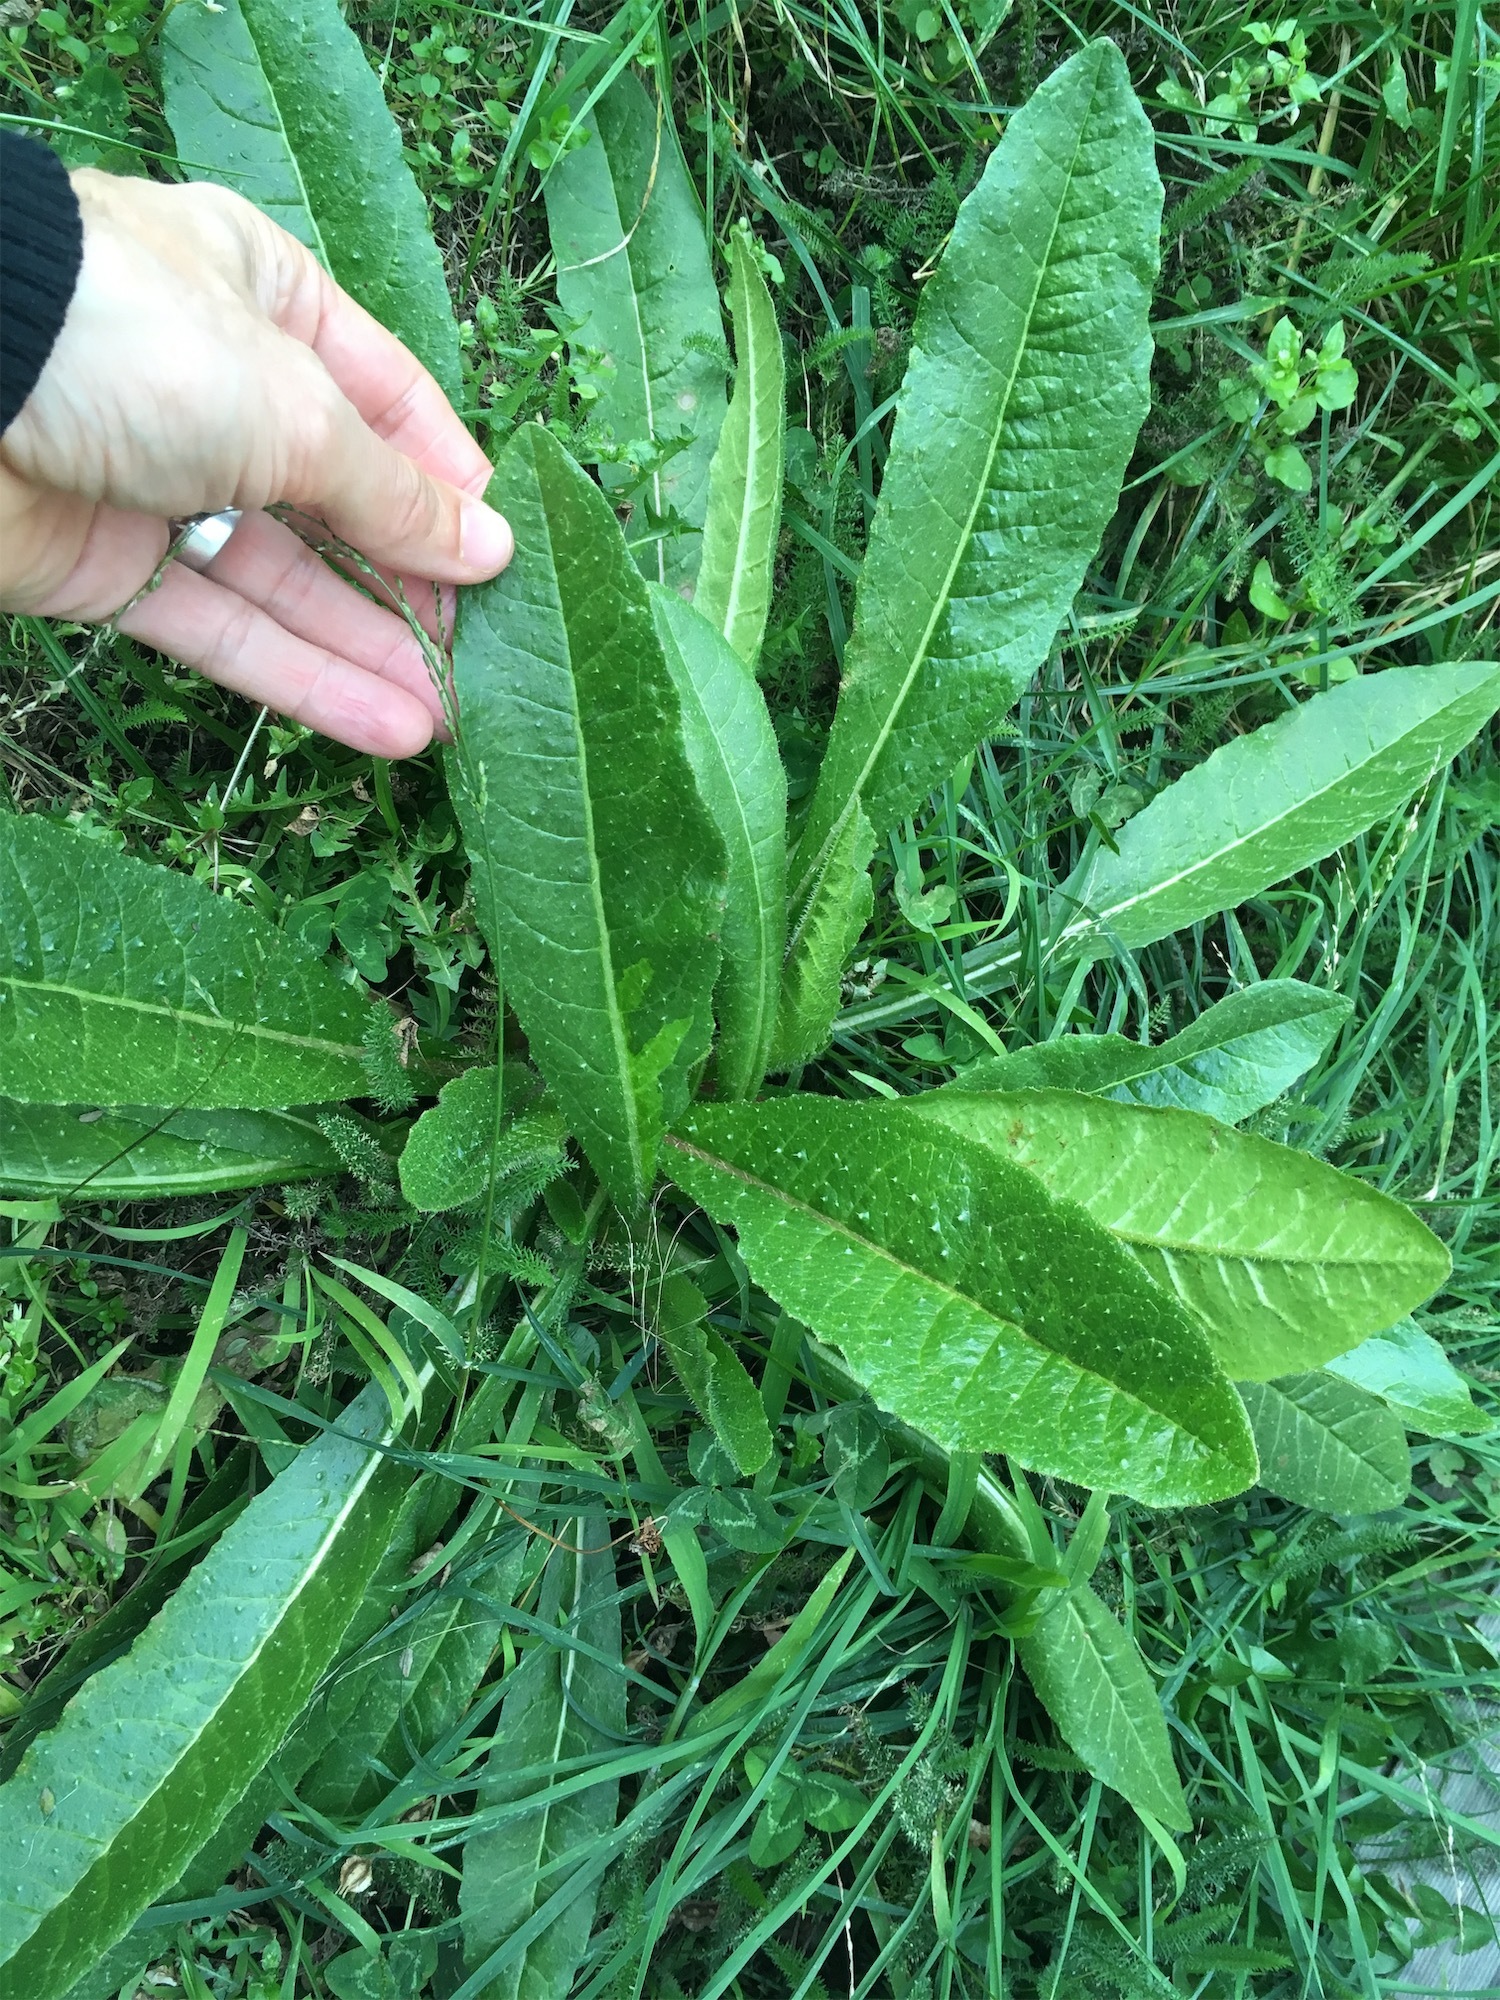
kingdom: Plantae
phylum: Tracheophyta
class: Magnoliopsida
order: Asterales
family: Asteraceae
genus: Helminthotheca
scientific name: Helminthotheca echioides
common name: Ox-tongue
